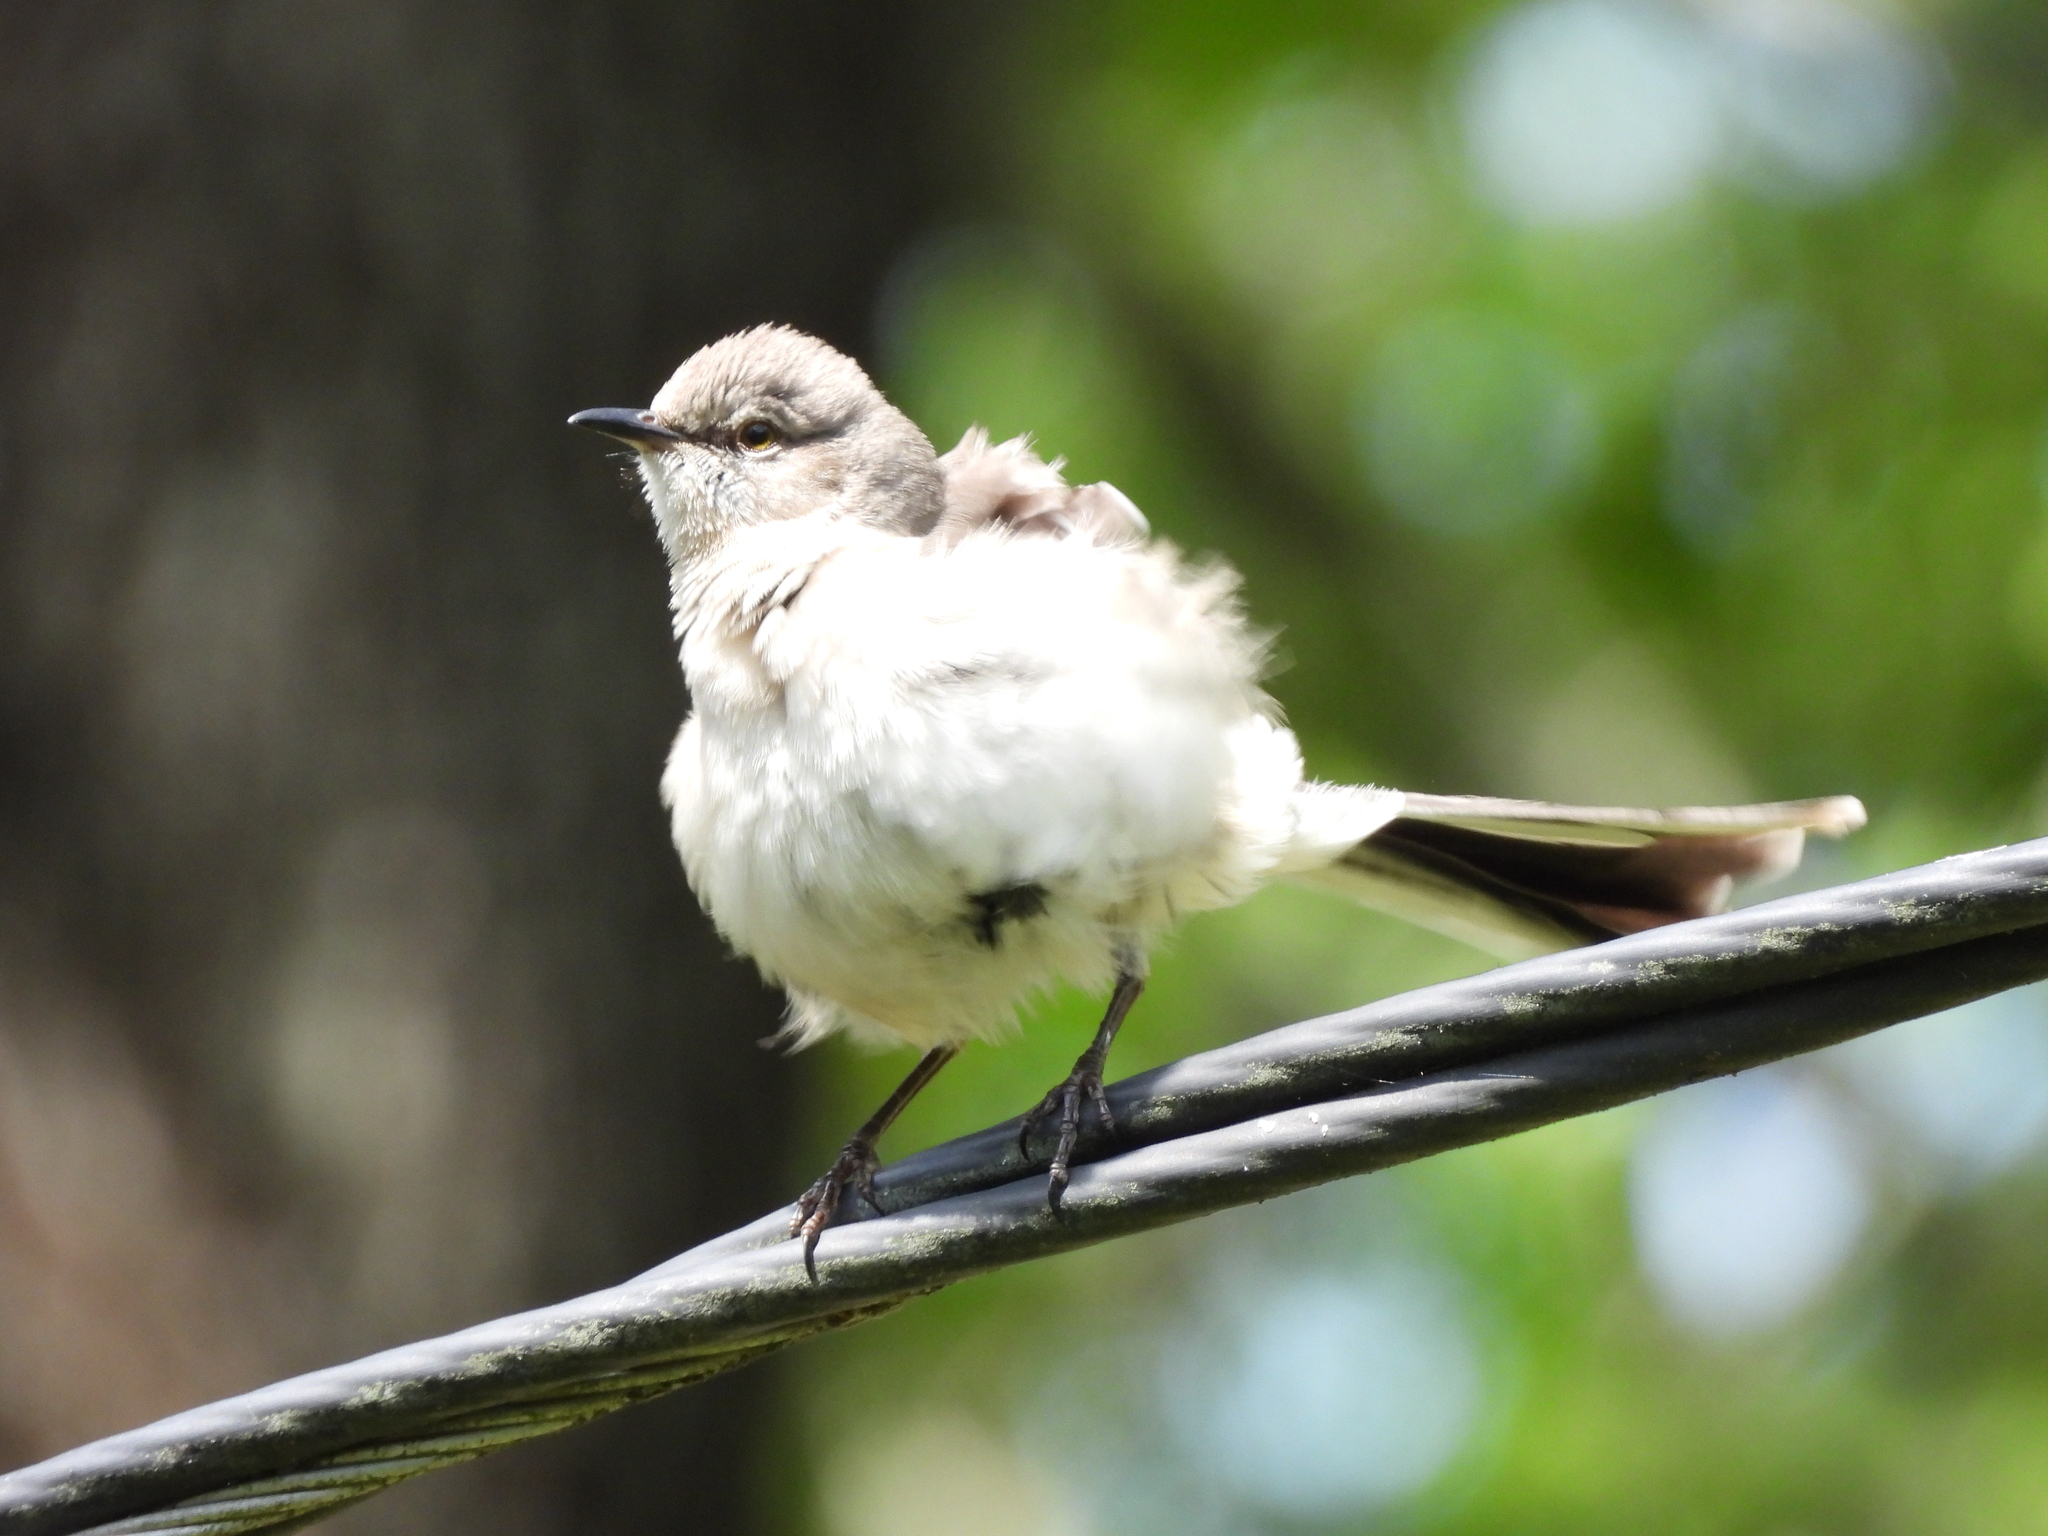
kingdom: Animalia
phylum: Chordata
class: Aves
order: Passeriformes
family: Mimidae
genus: Mimus
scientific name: Mimus polyglottos
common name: Northern mockingbird
